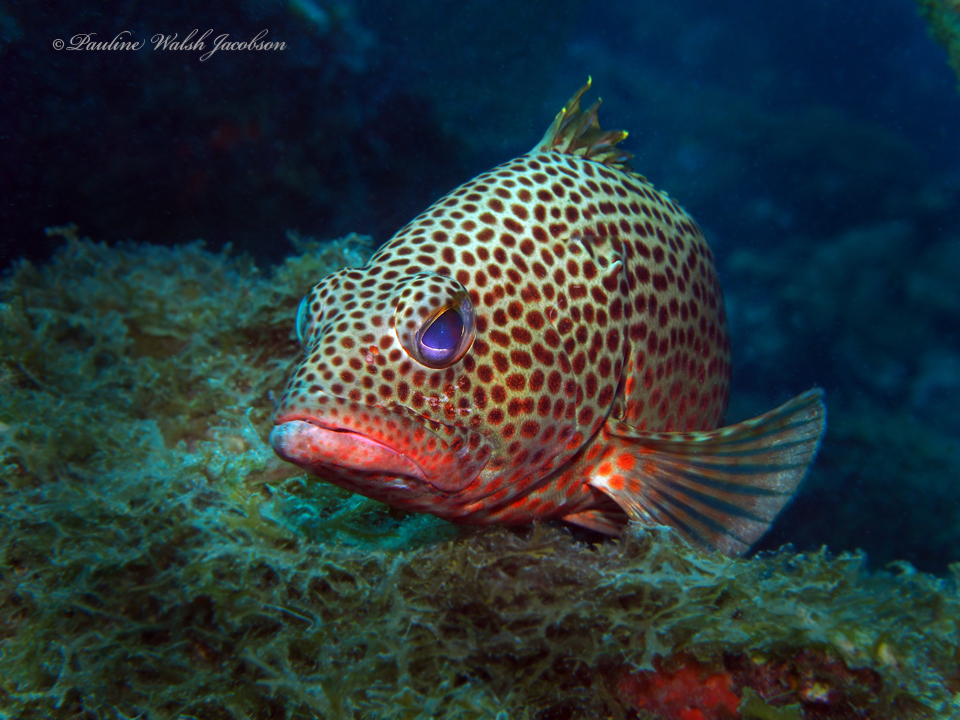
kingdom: Animalia
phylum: Chordata
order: Perciformes
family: Serranidae
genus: Epinephelus
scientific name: Epinephelus guttatus
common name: Red hind
